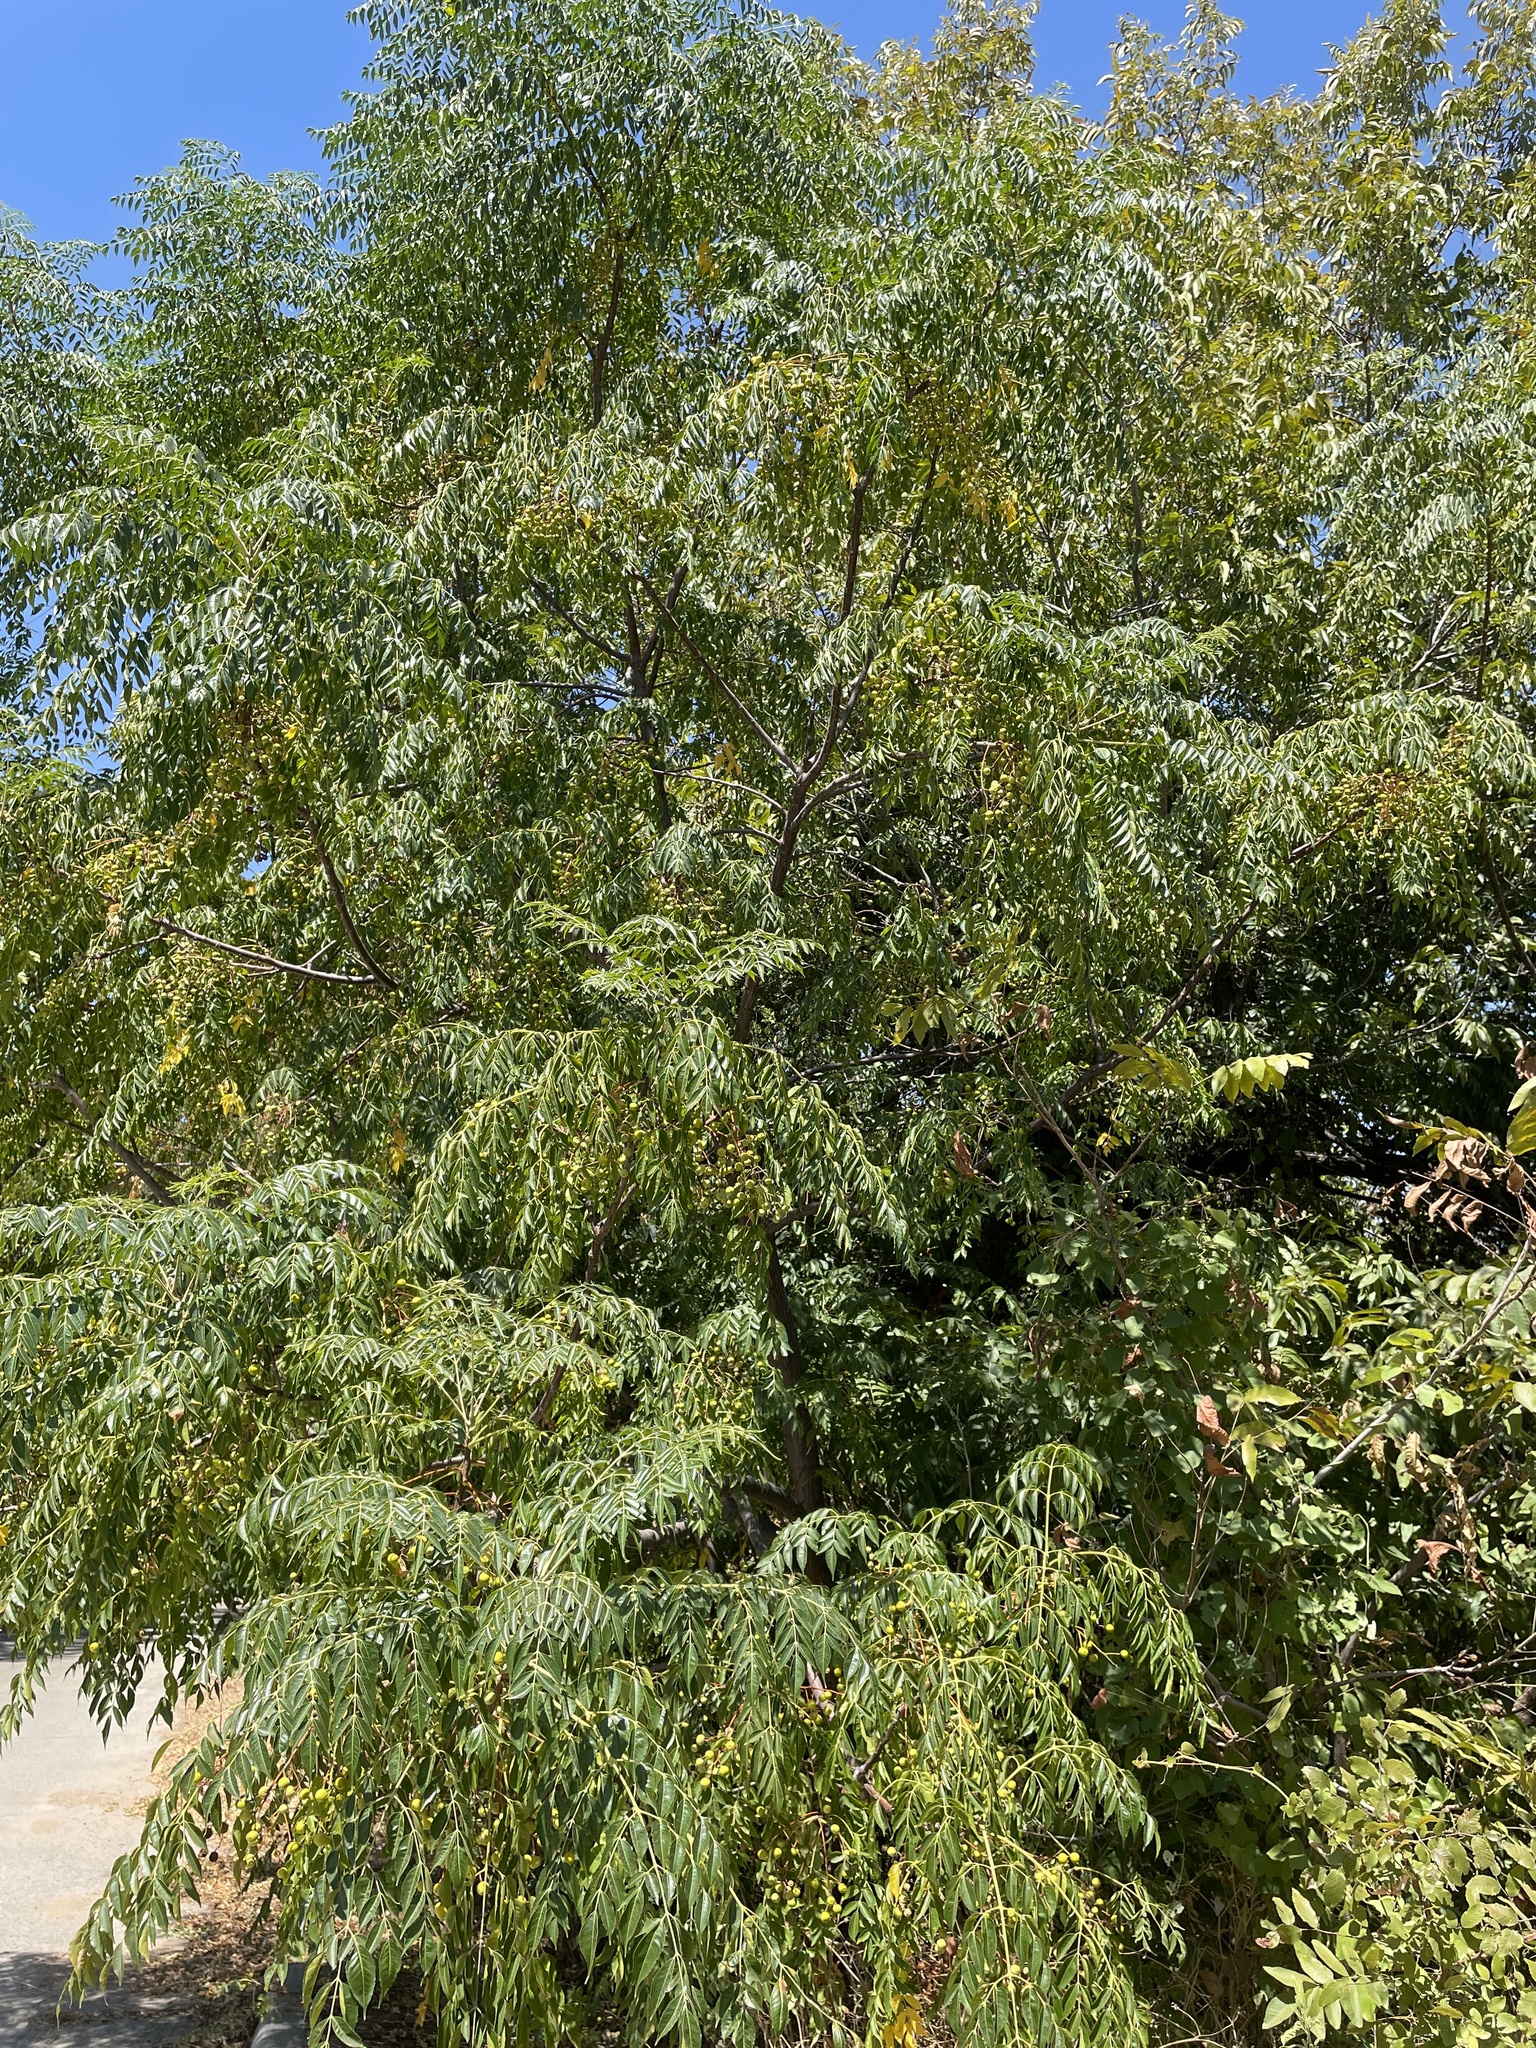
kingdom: Plantae
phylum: Tracheophyta
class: Magnoliopsida
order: Sapindales
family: Meliaceae
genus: Melia
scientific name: Melia azedarach
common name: Chinaberrytree
